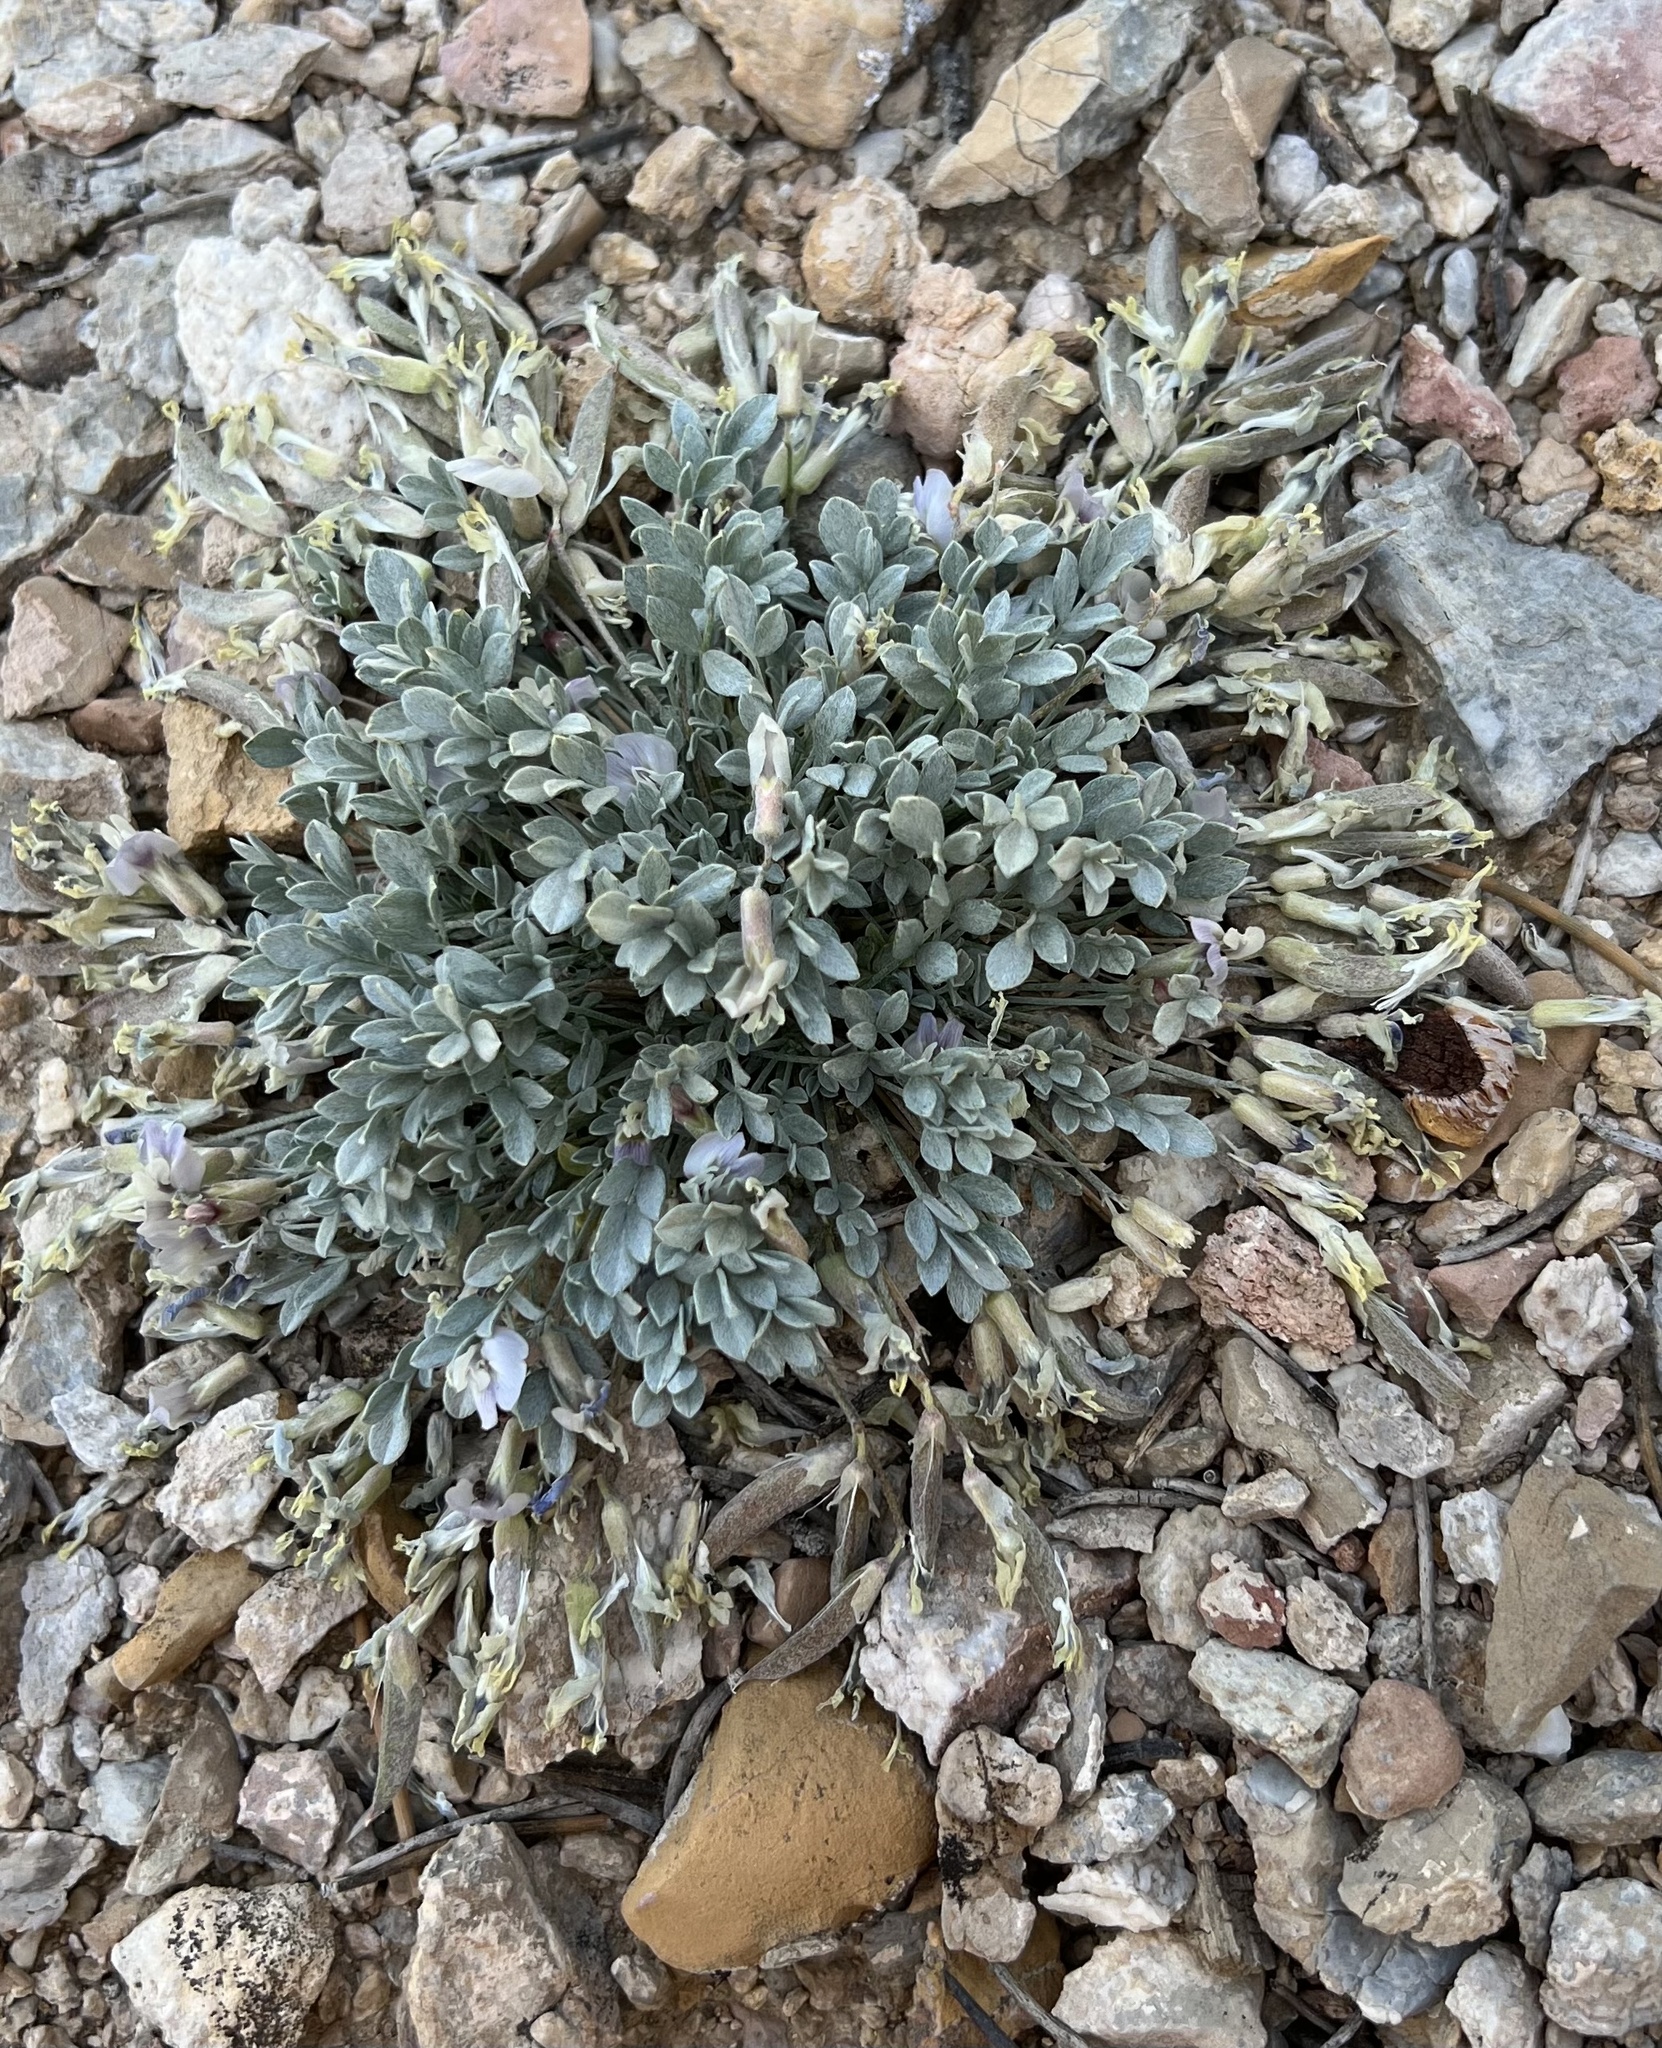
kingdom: Plantae
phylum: Tracheophyta
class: Magnoliopsida
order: Fabales
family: Fabaceae
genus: Astragalus
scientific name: Astragalus calycosus
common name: King's milkvetch
